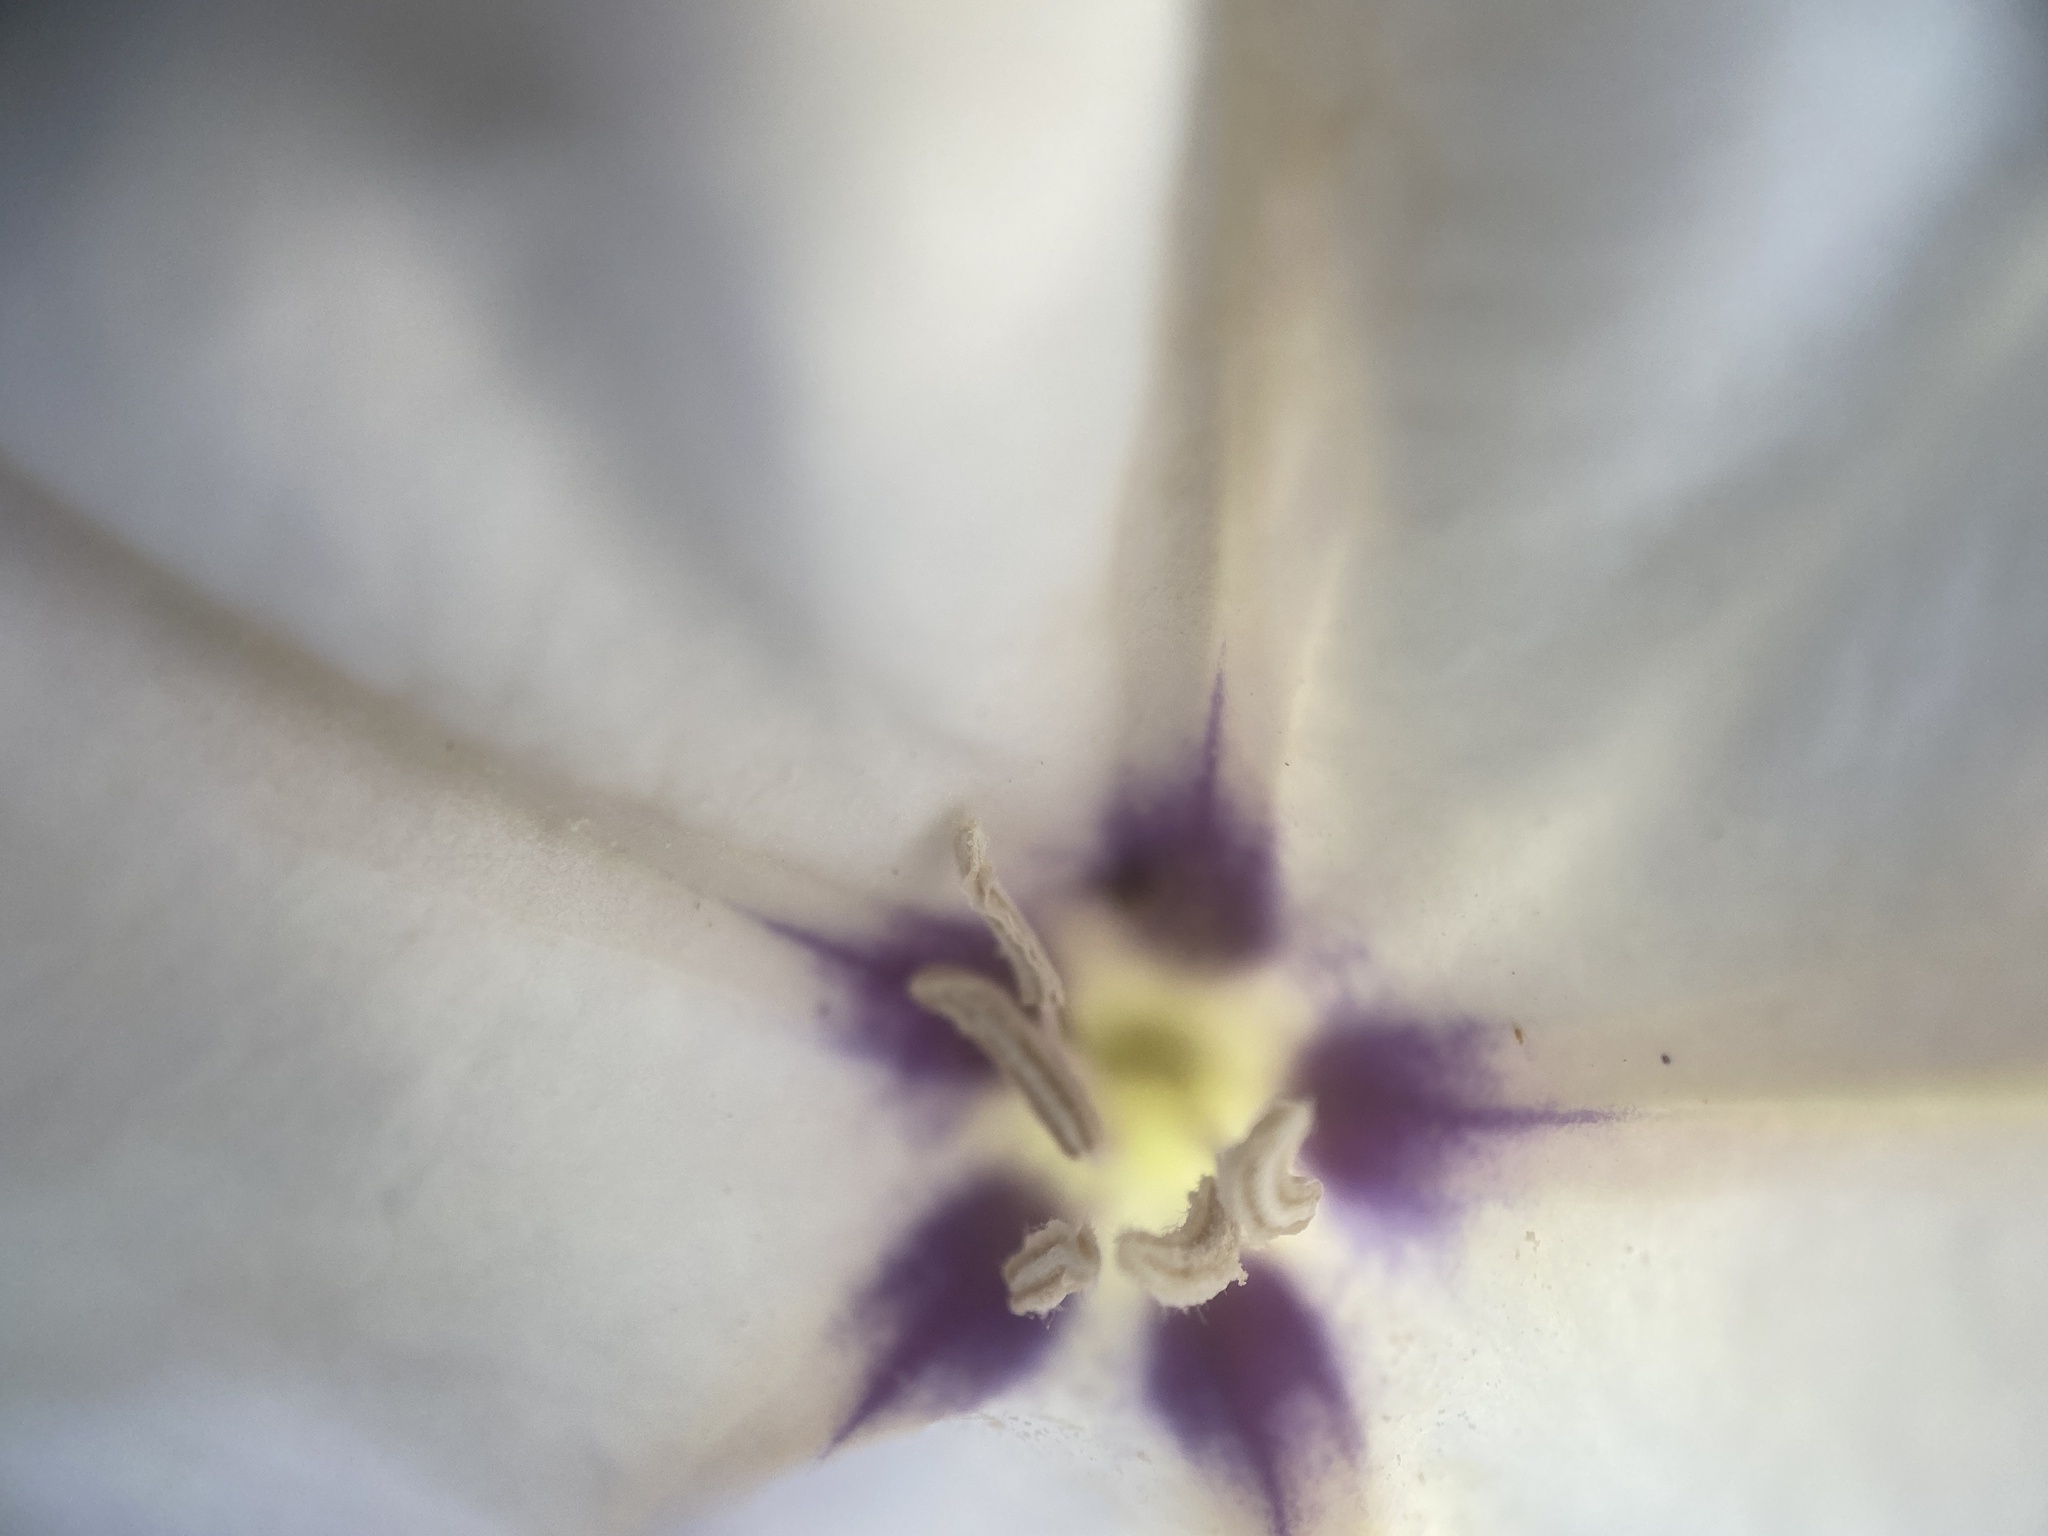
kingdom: Plantae
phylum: Tracheophyta
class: Magnoliopsida
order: Solanales
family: Solanaceae
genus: Datura
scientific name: Datura discolor
